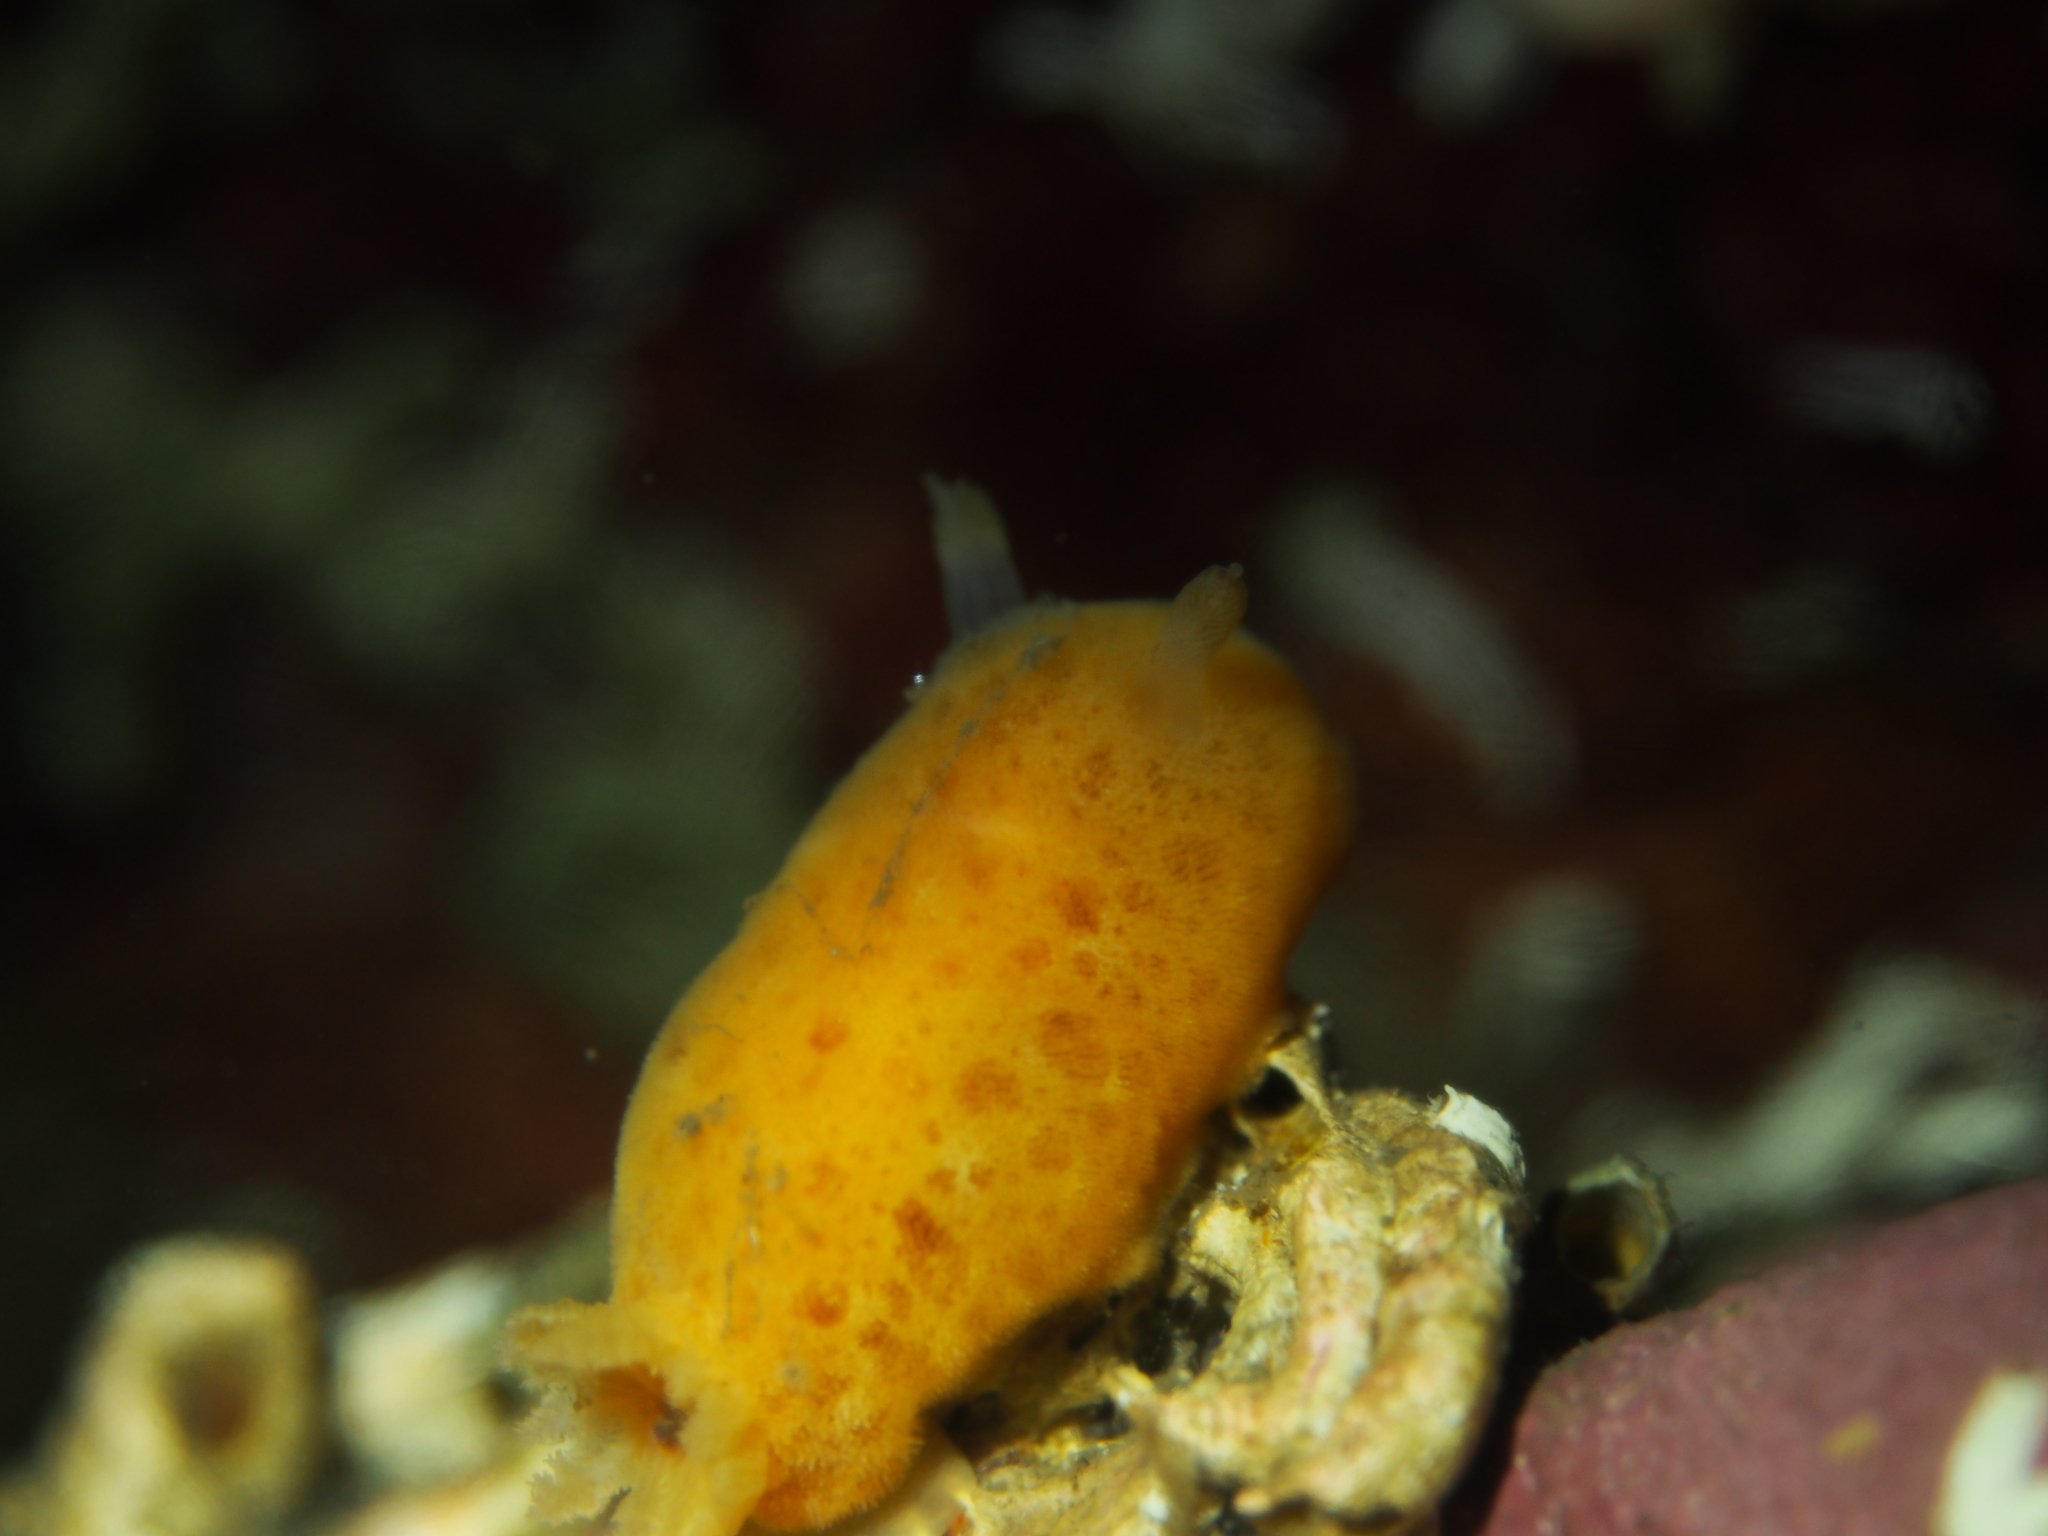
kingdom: Animalia
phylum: Mollusca
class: Gastropoda
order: Nudibranchia
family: Discodorididae
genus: Jorunna
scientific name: Jorunna tomentosa
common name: Grey sea slug
